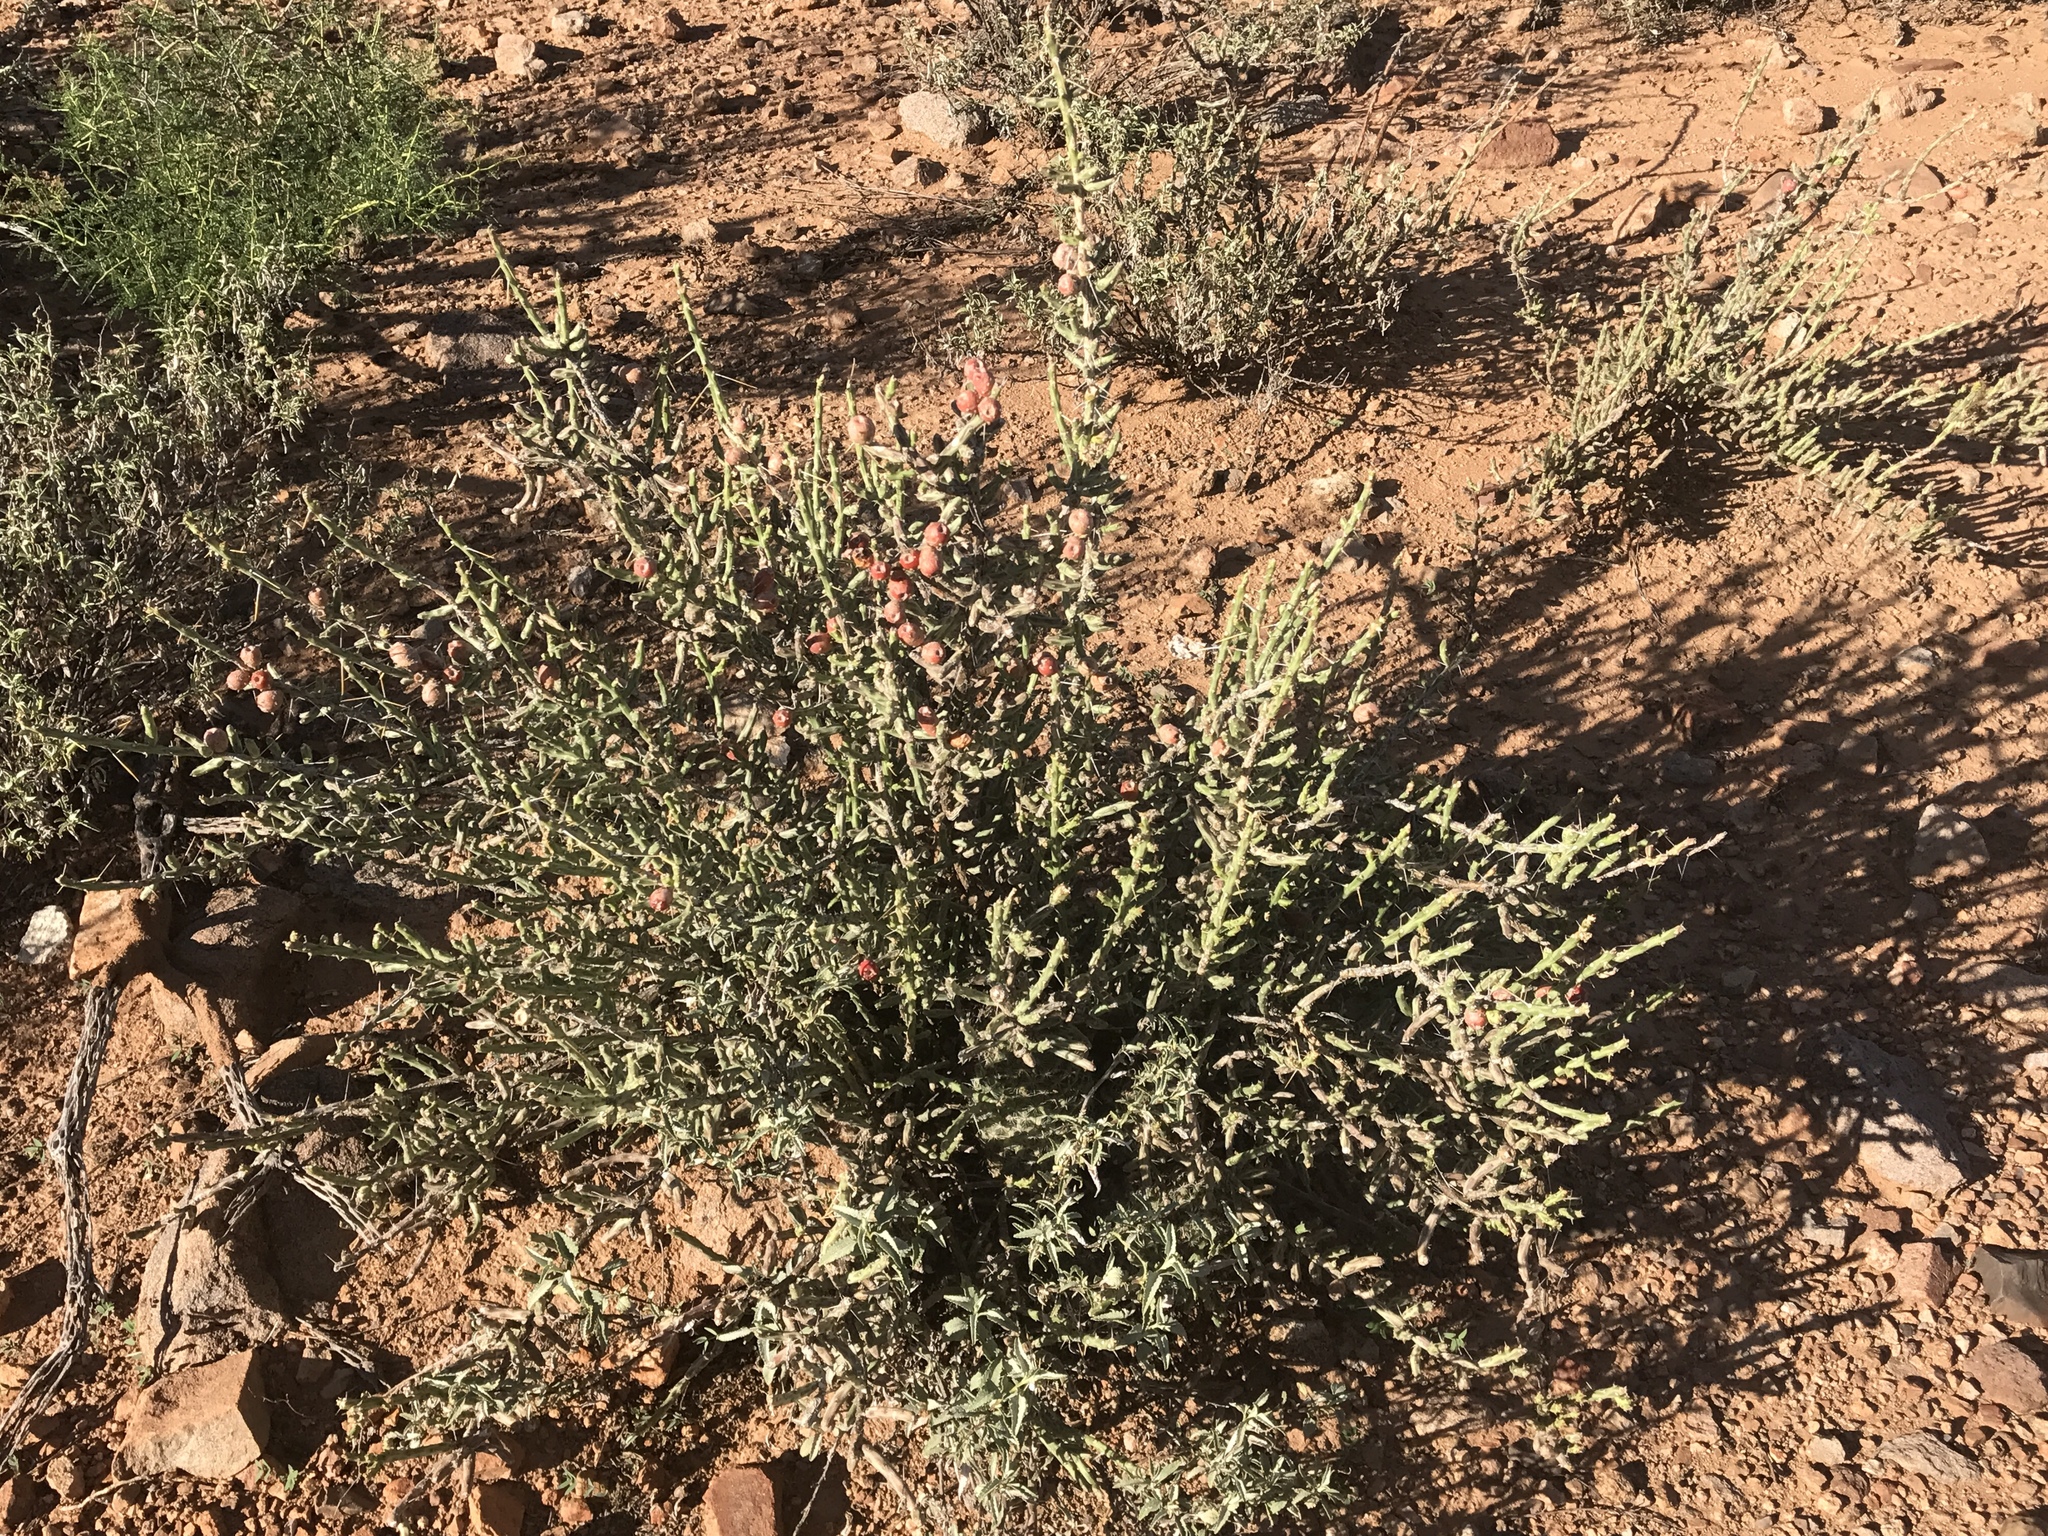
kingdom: Plantae
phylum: Tracheophyta
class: Magnoliopsida
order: Caryophyllales
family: Cactaceae
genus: Cylindropuntia
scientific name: Cylindropuntia leptocaulis
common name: Christmas cactus
